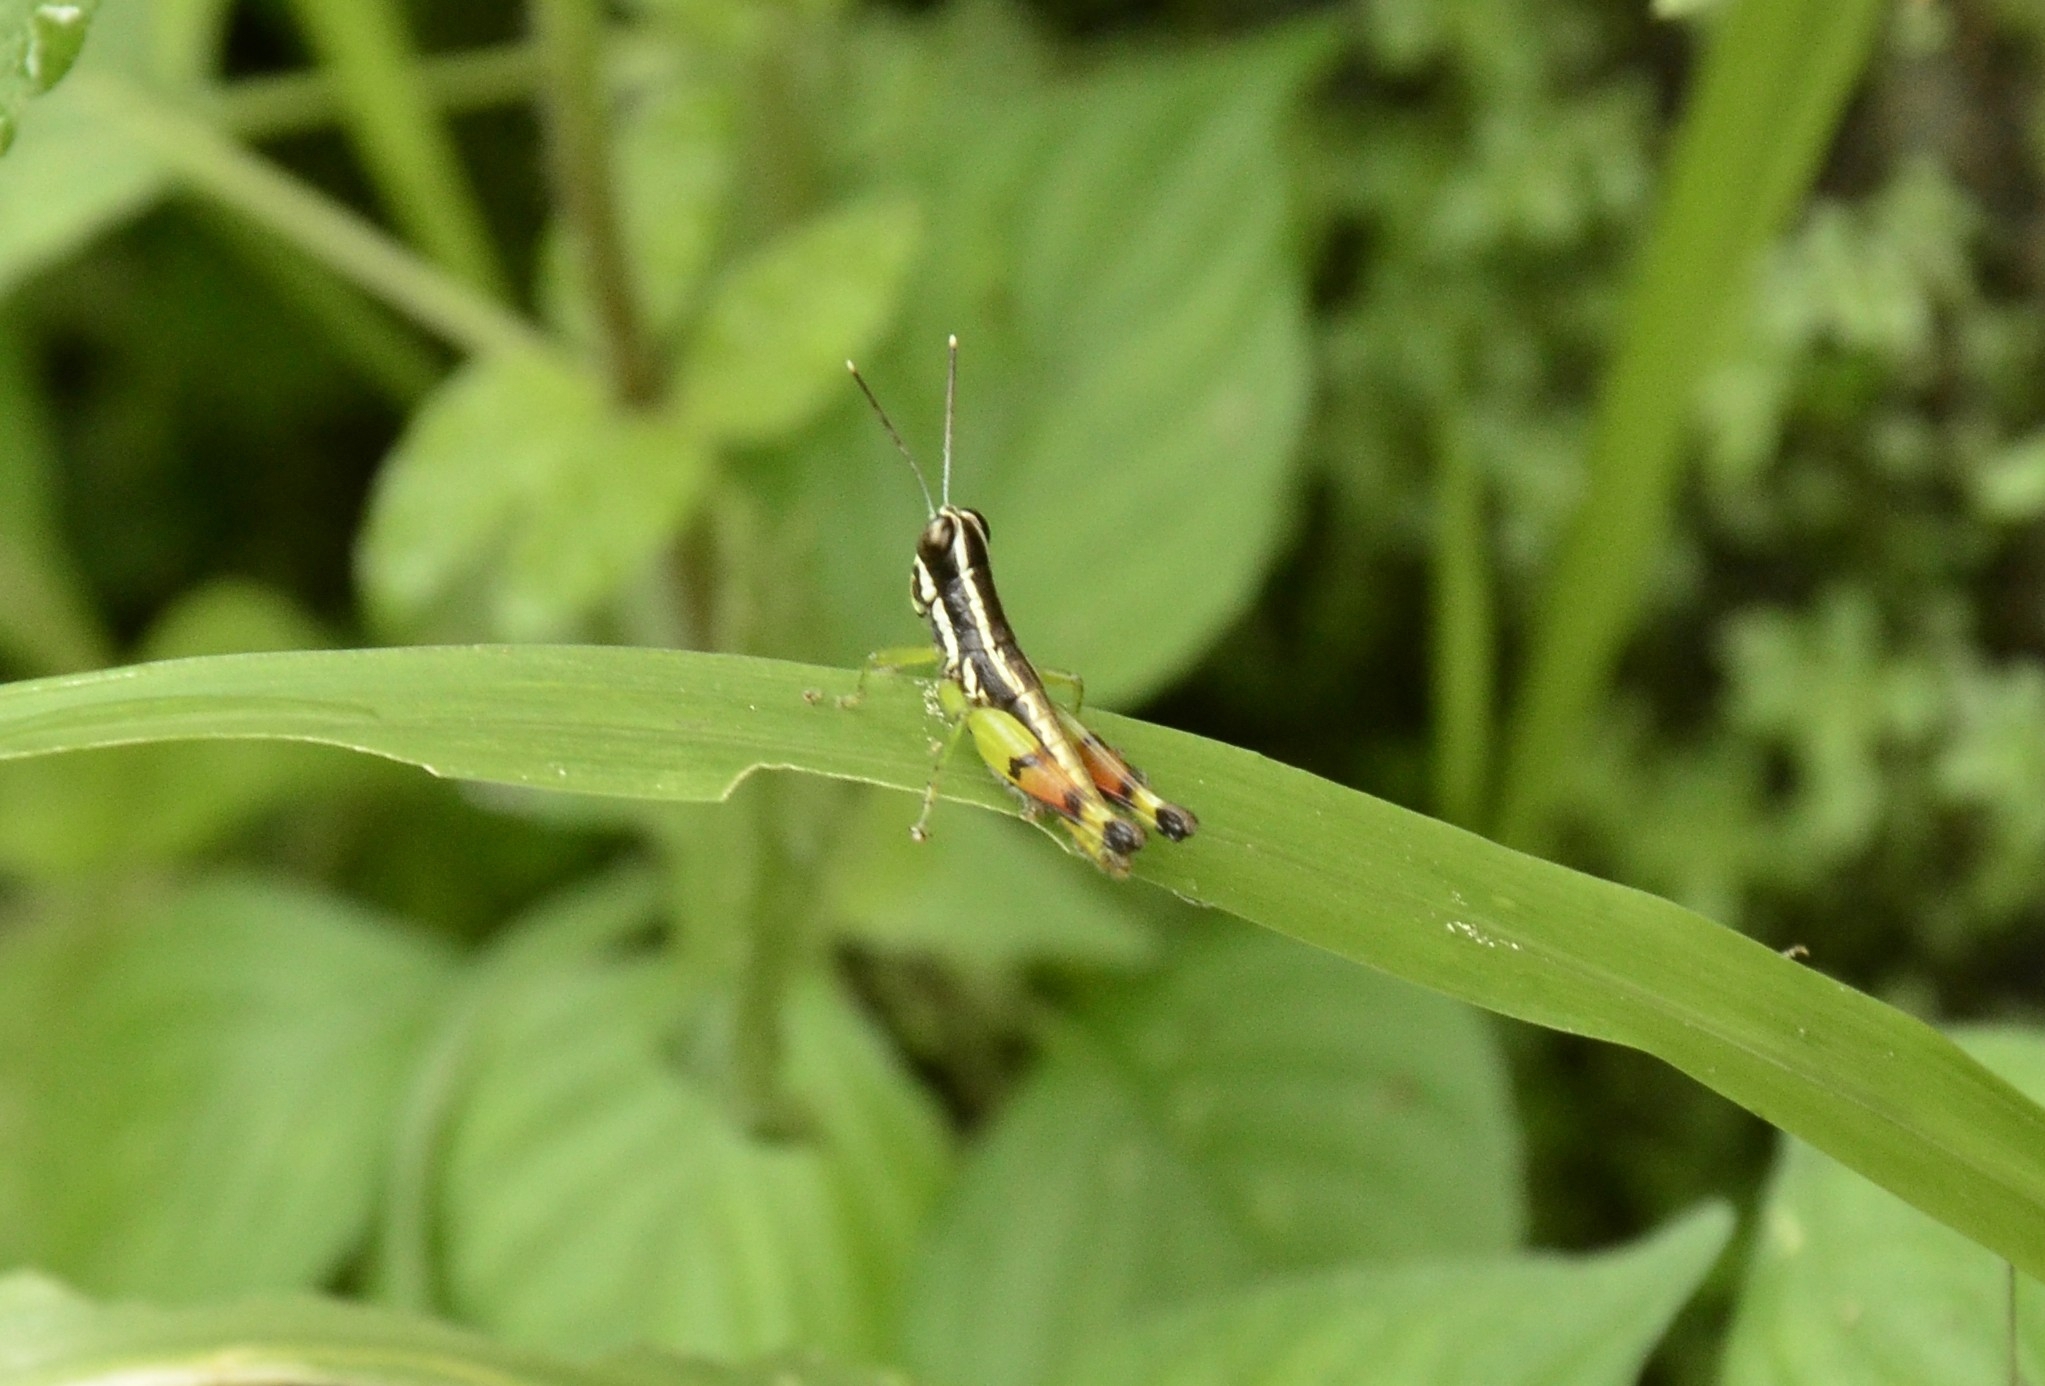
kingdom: Animalia
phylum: Arthropoda
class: Insecta
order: Orthoptera
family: Acrididae
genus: Chitaura
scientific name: Chitaura indica
